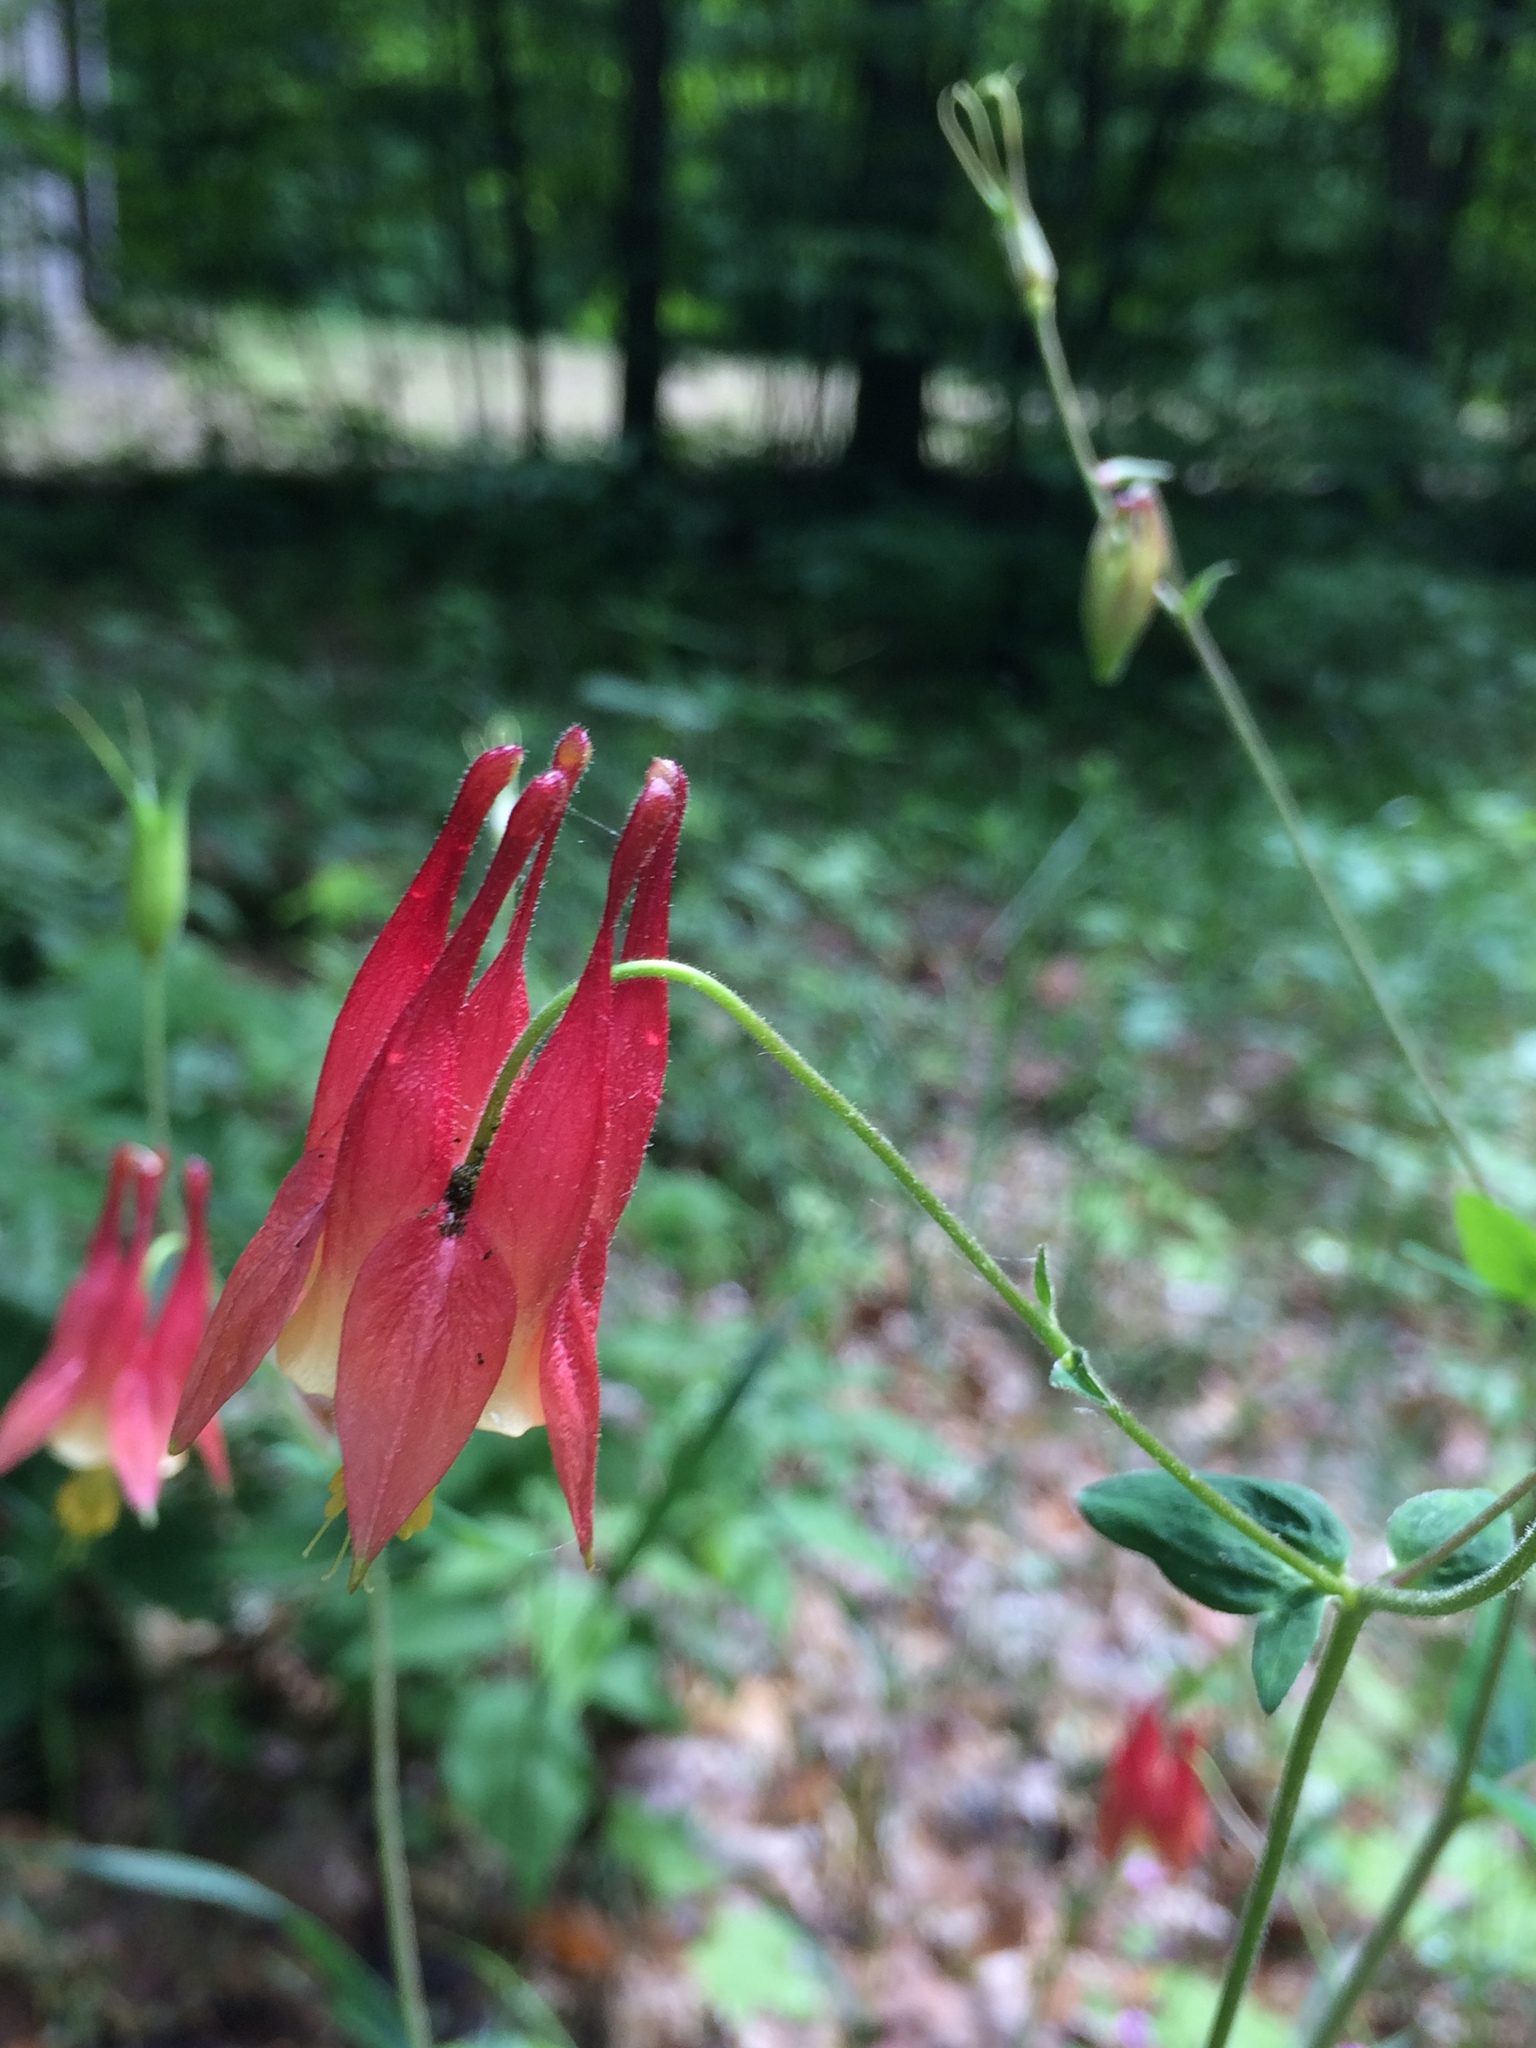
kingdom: Plantae
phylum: Tracheophyta
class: Magnoliopsida
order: Ranunculales
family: Ranunculaceae
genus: Aquilegia
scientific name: Aquilegia canadensis
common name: American columbine
